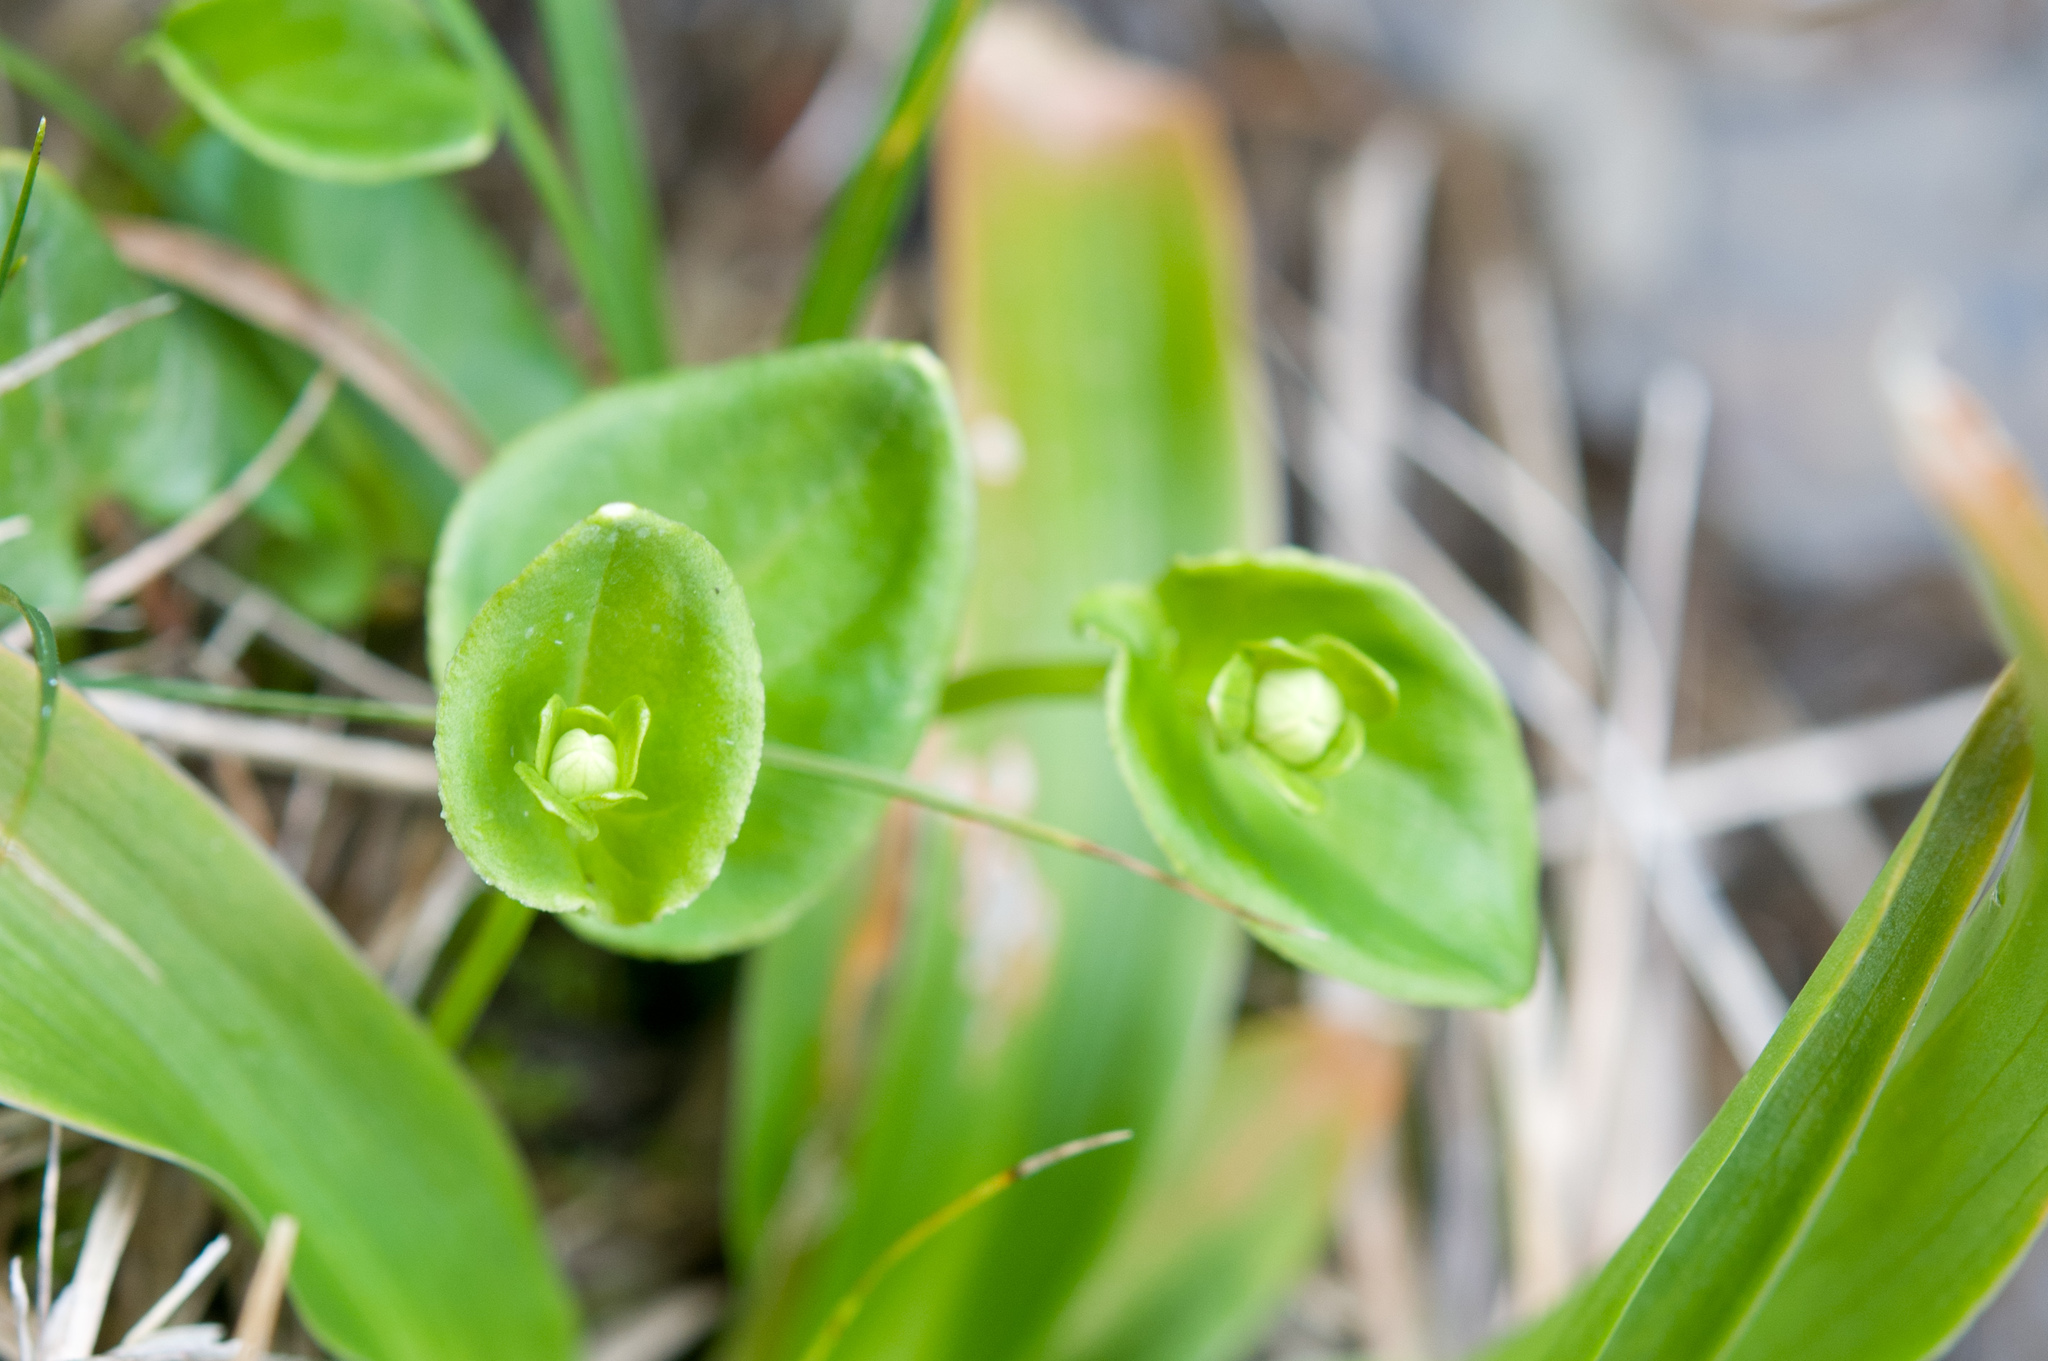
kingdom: Plantae
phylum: Tracheophyta
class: Magnoliopsida
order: Celastrales
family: Parnassiaceae
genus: Parnassia
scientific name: Parnassia palustris
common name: Grass-of-parnassus
